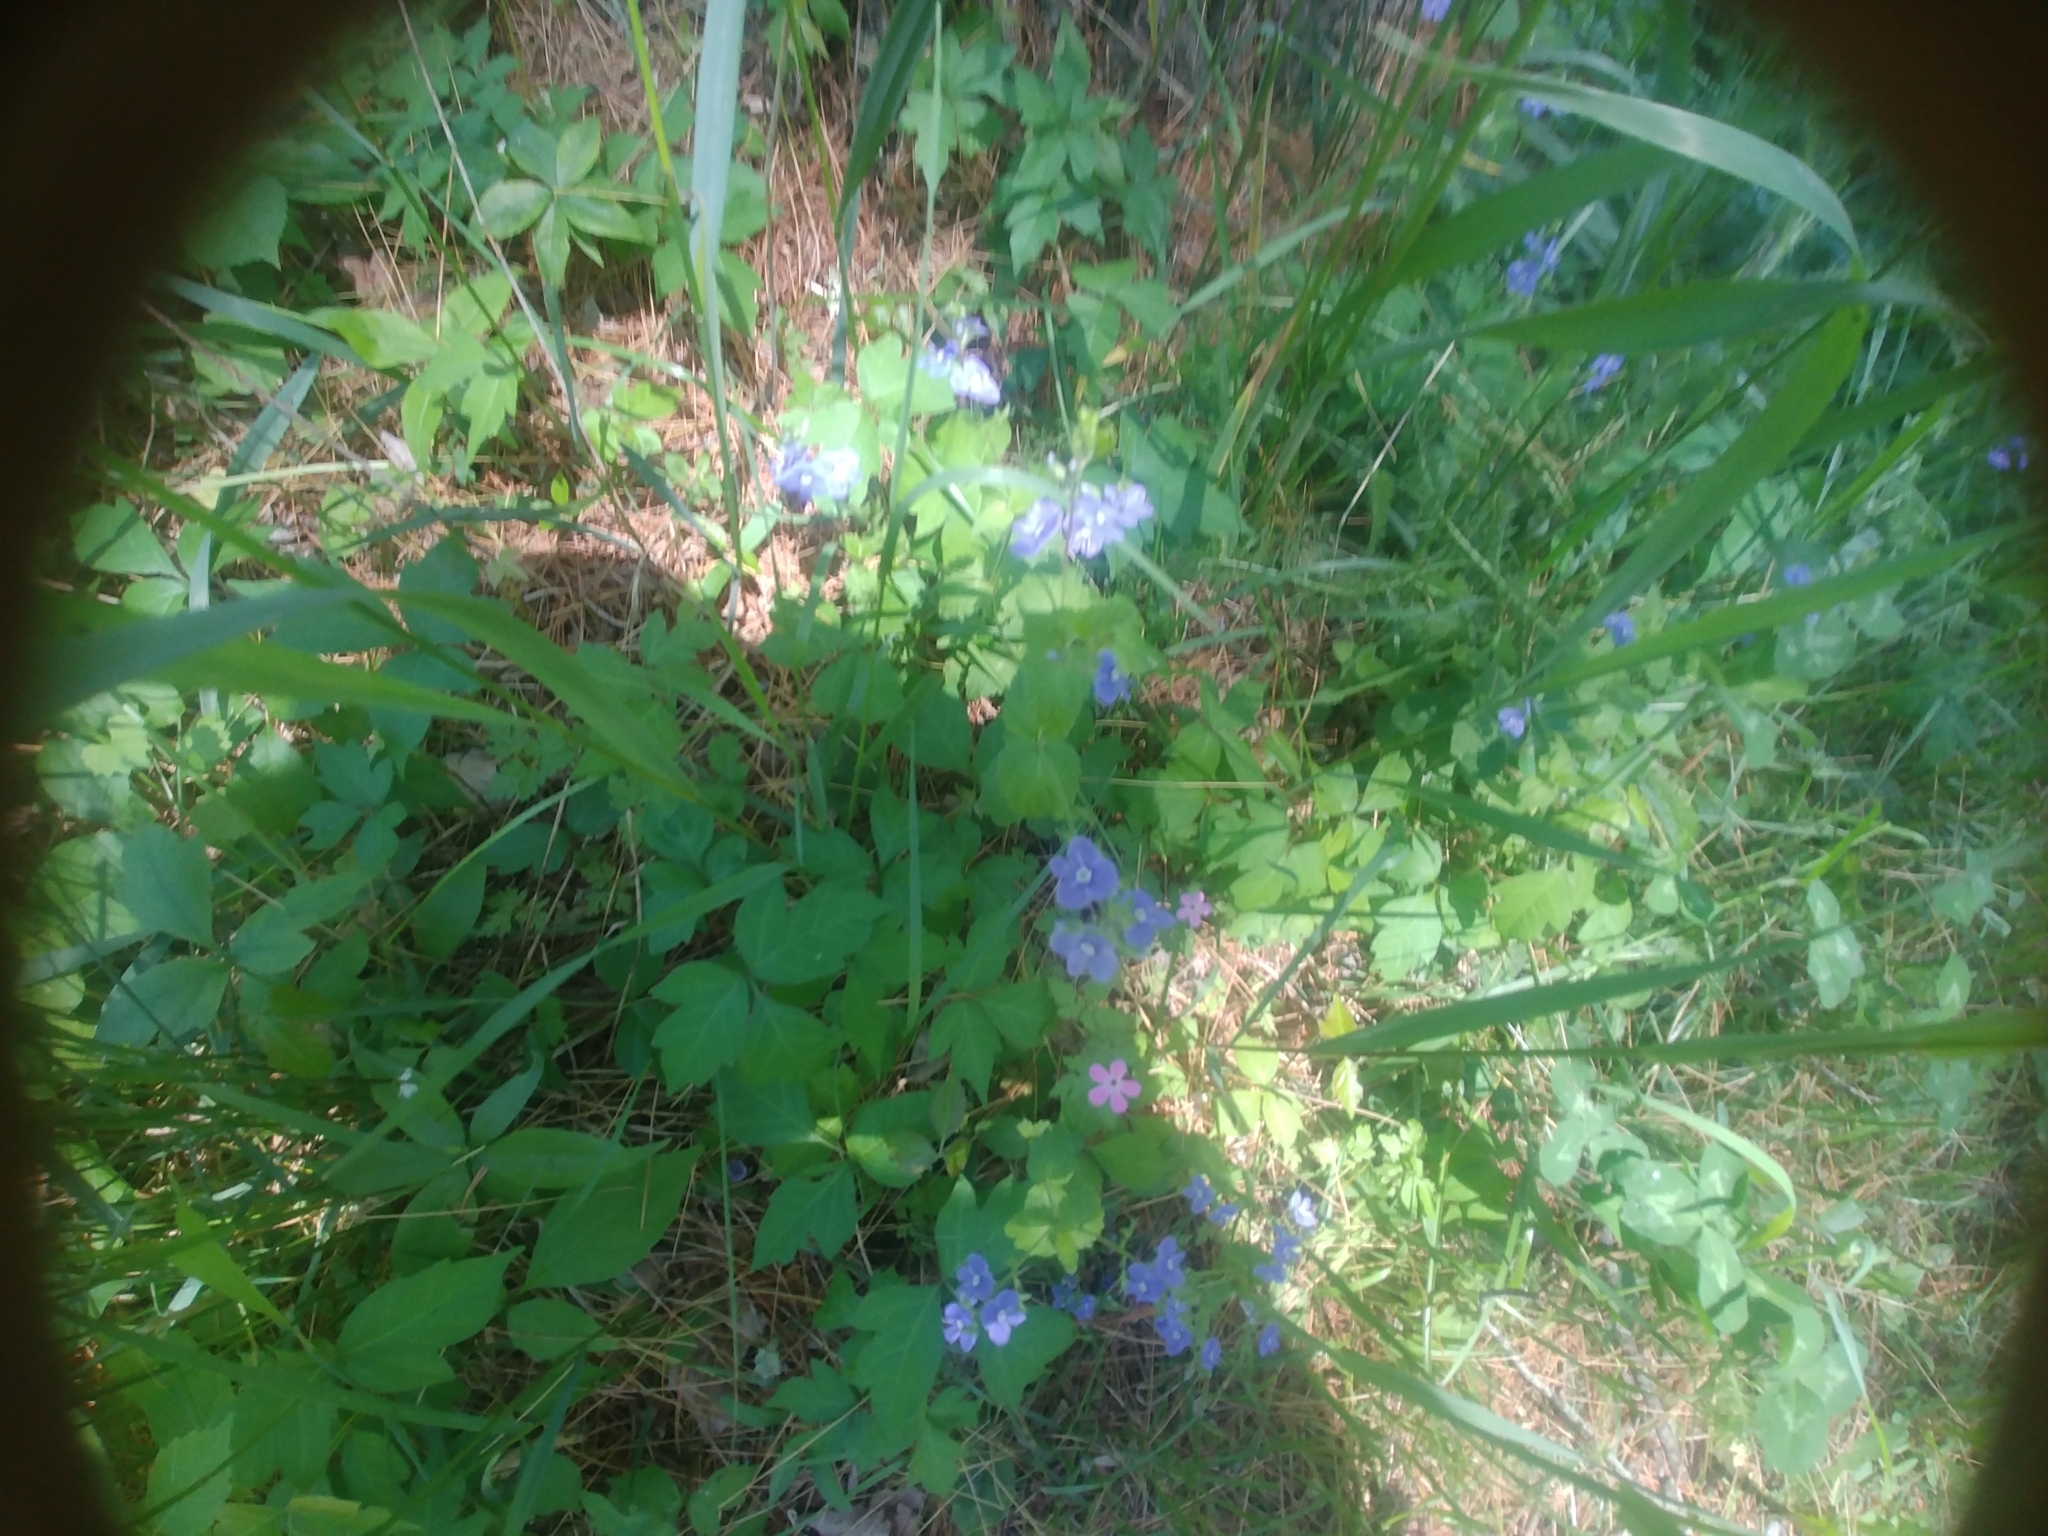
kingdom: Plantae
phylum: Tracheophyta
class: Magnoliopsida
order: Lamiales
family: Plantaginaceae
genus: Veronica
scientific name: Veronica chamaedrys
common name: Germander speedwell
